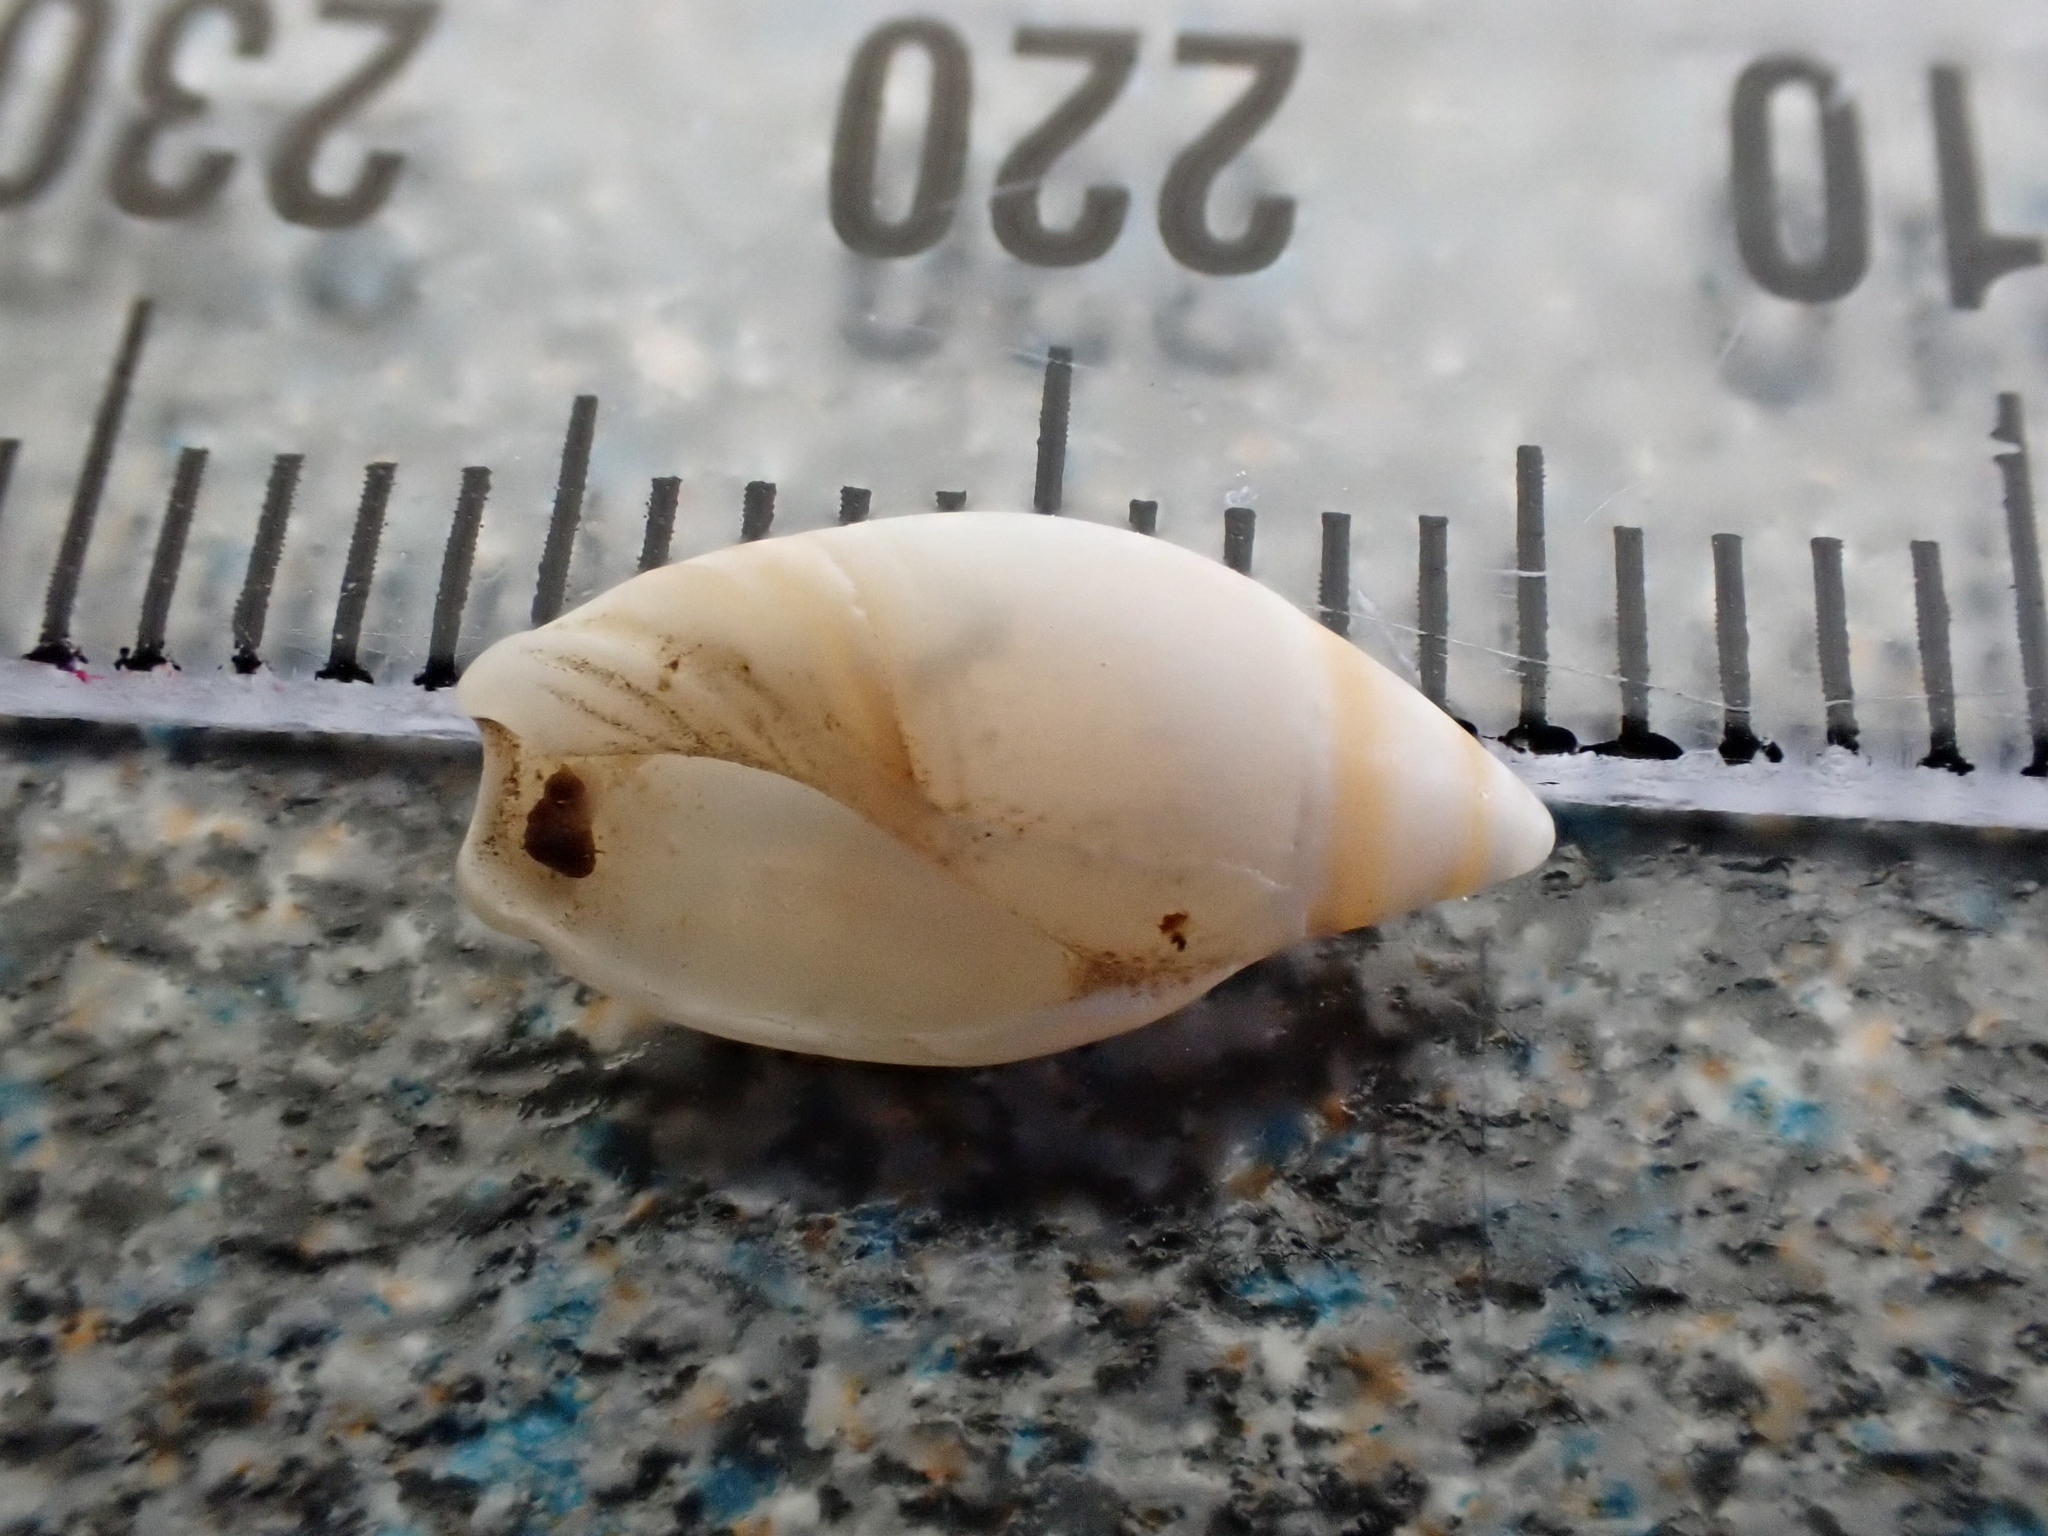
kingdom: Animalia
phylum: Mollusca
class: Gastropoda
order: Neogastropoda
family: Ancillariidae
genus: Amalda
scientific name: Amalda novaezelandiae
